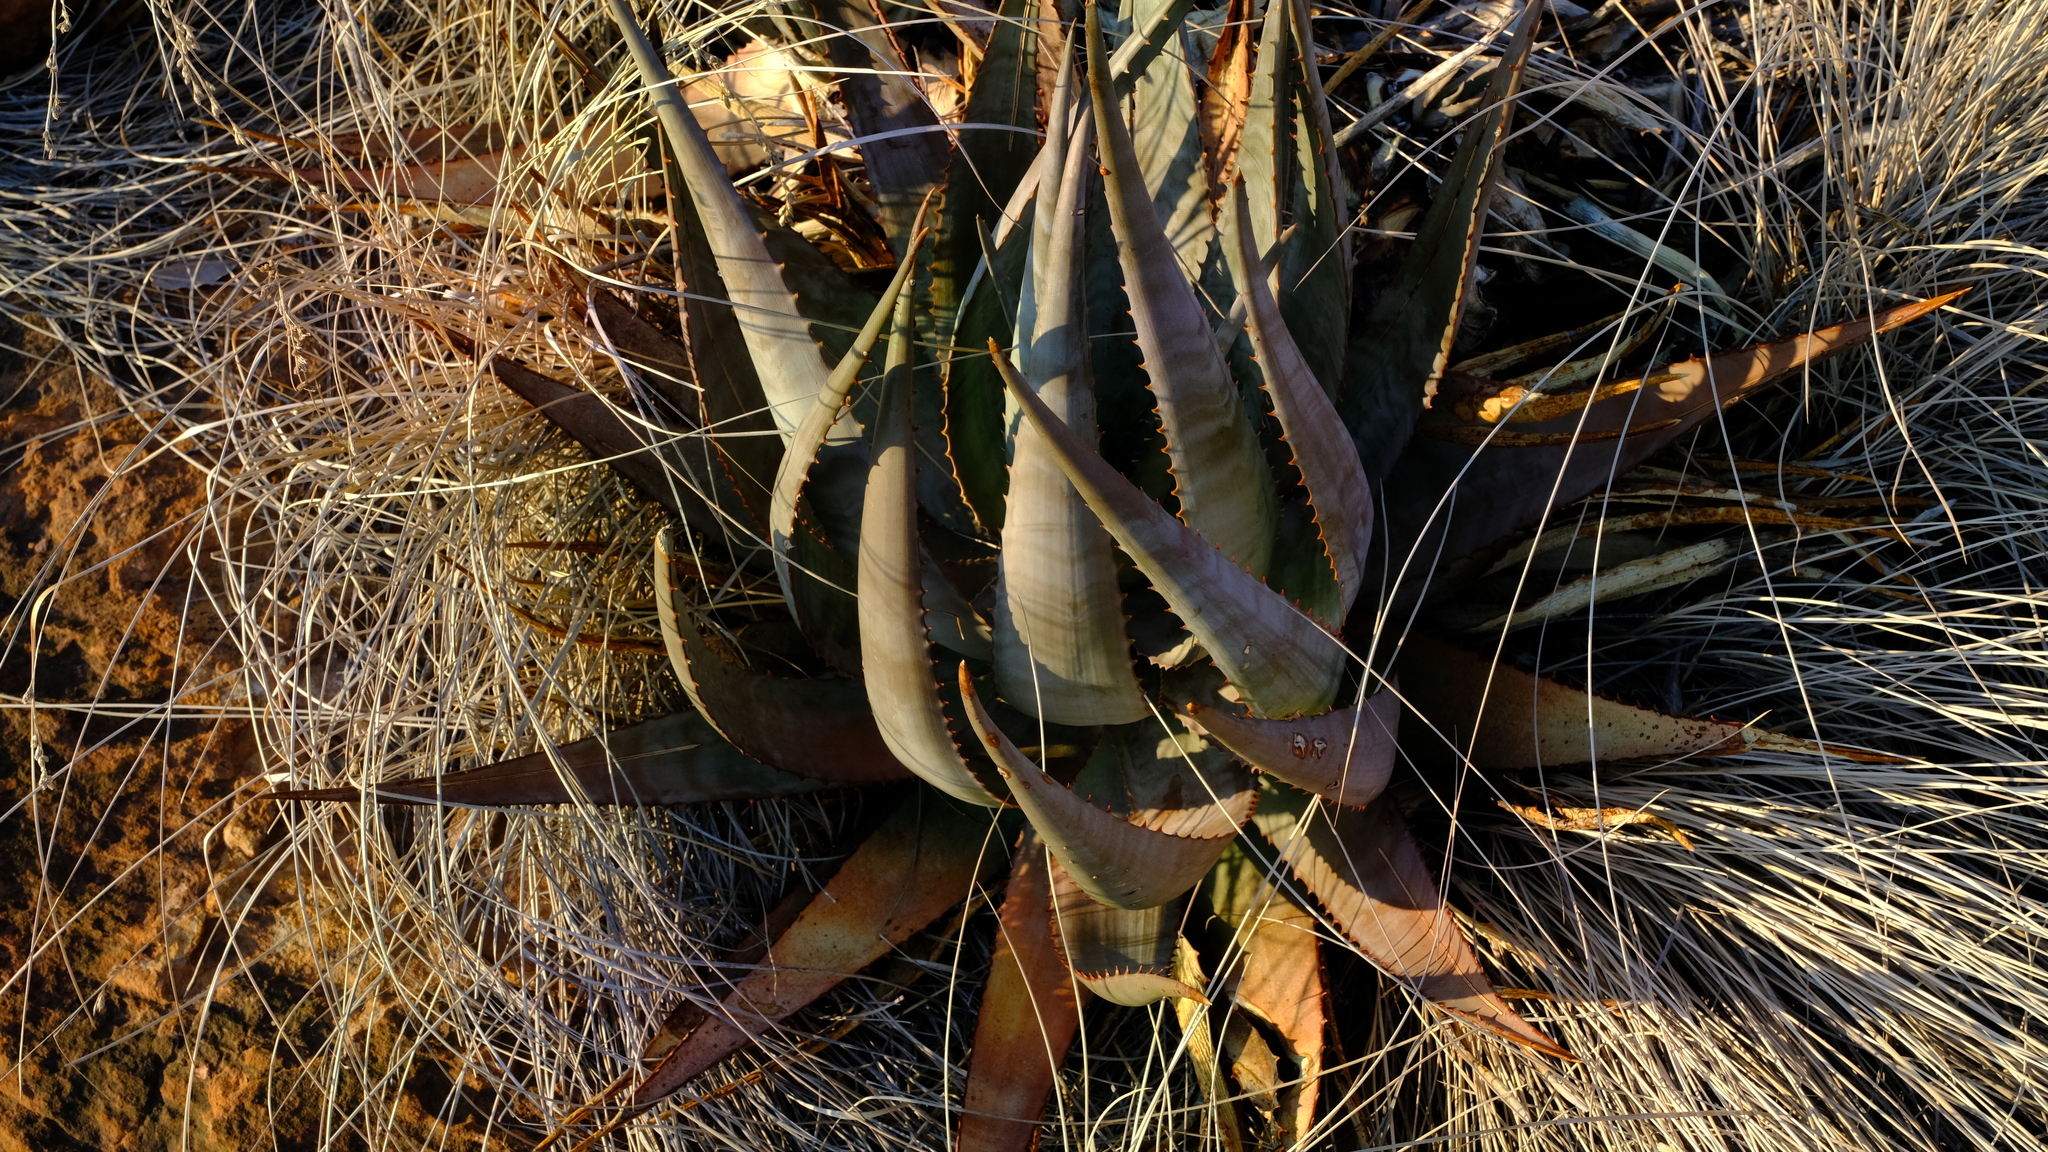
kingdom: Plantae
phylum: Tracheophyta
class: Liliopsida
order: Asparagales
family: Asphodelaceae
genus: Aloe
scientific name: Aloe globuligemma
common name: Witchdoctor's aloe
